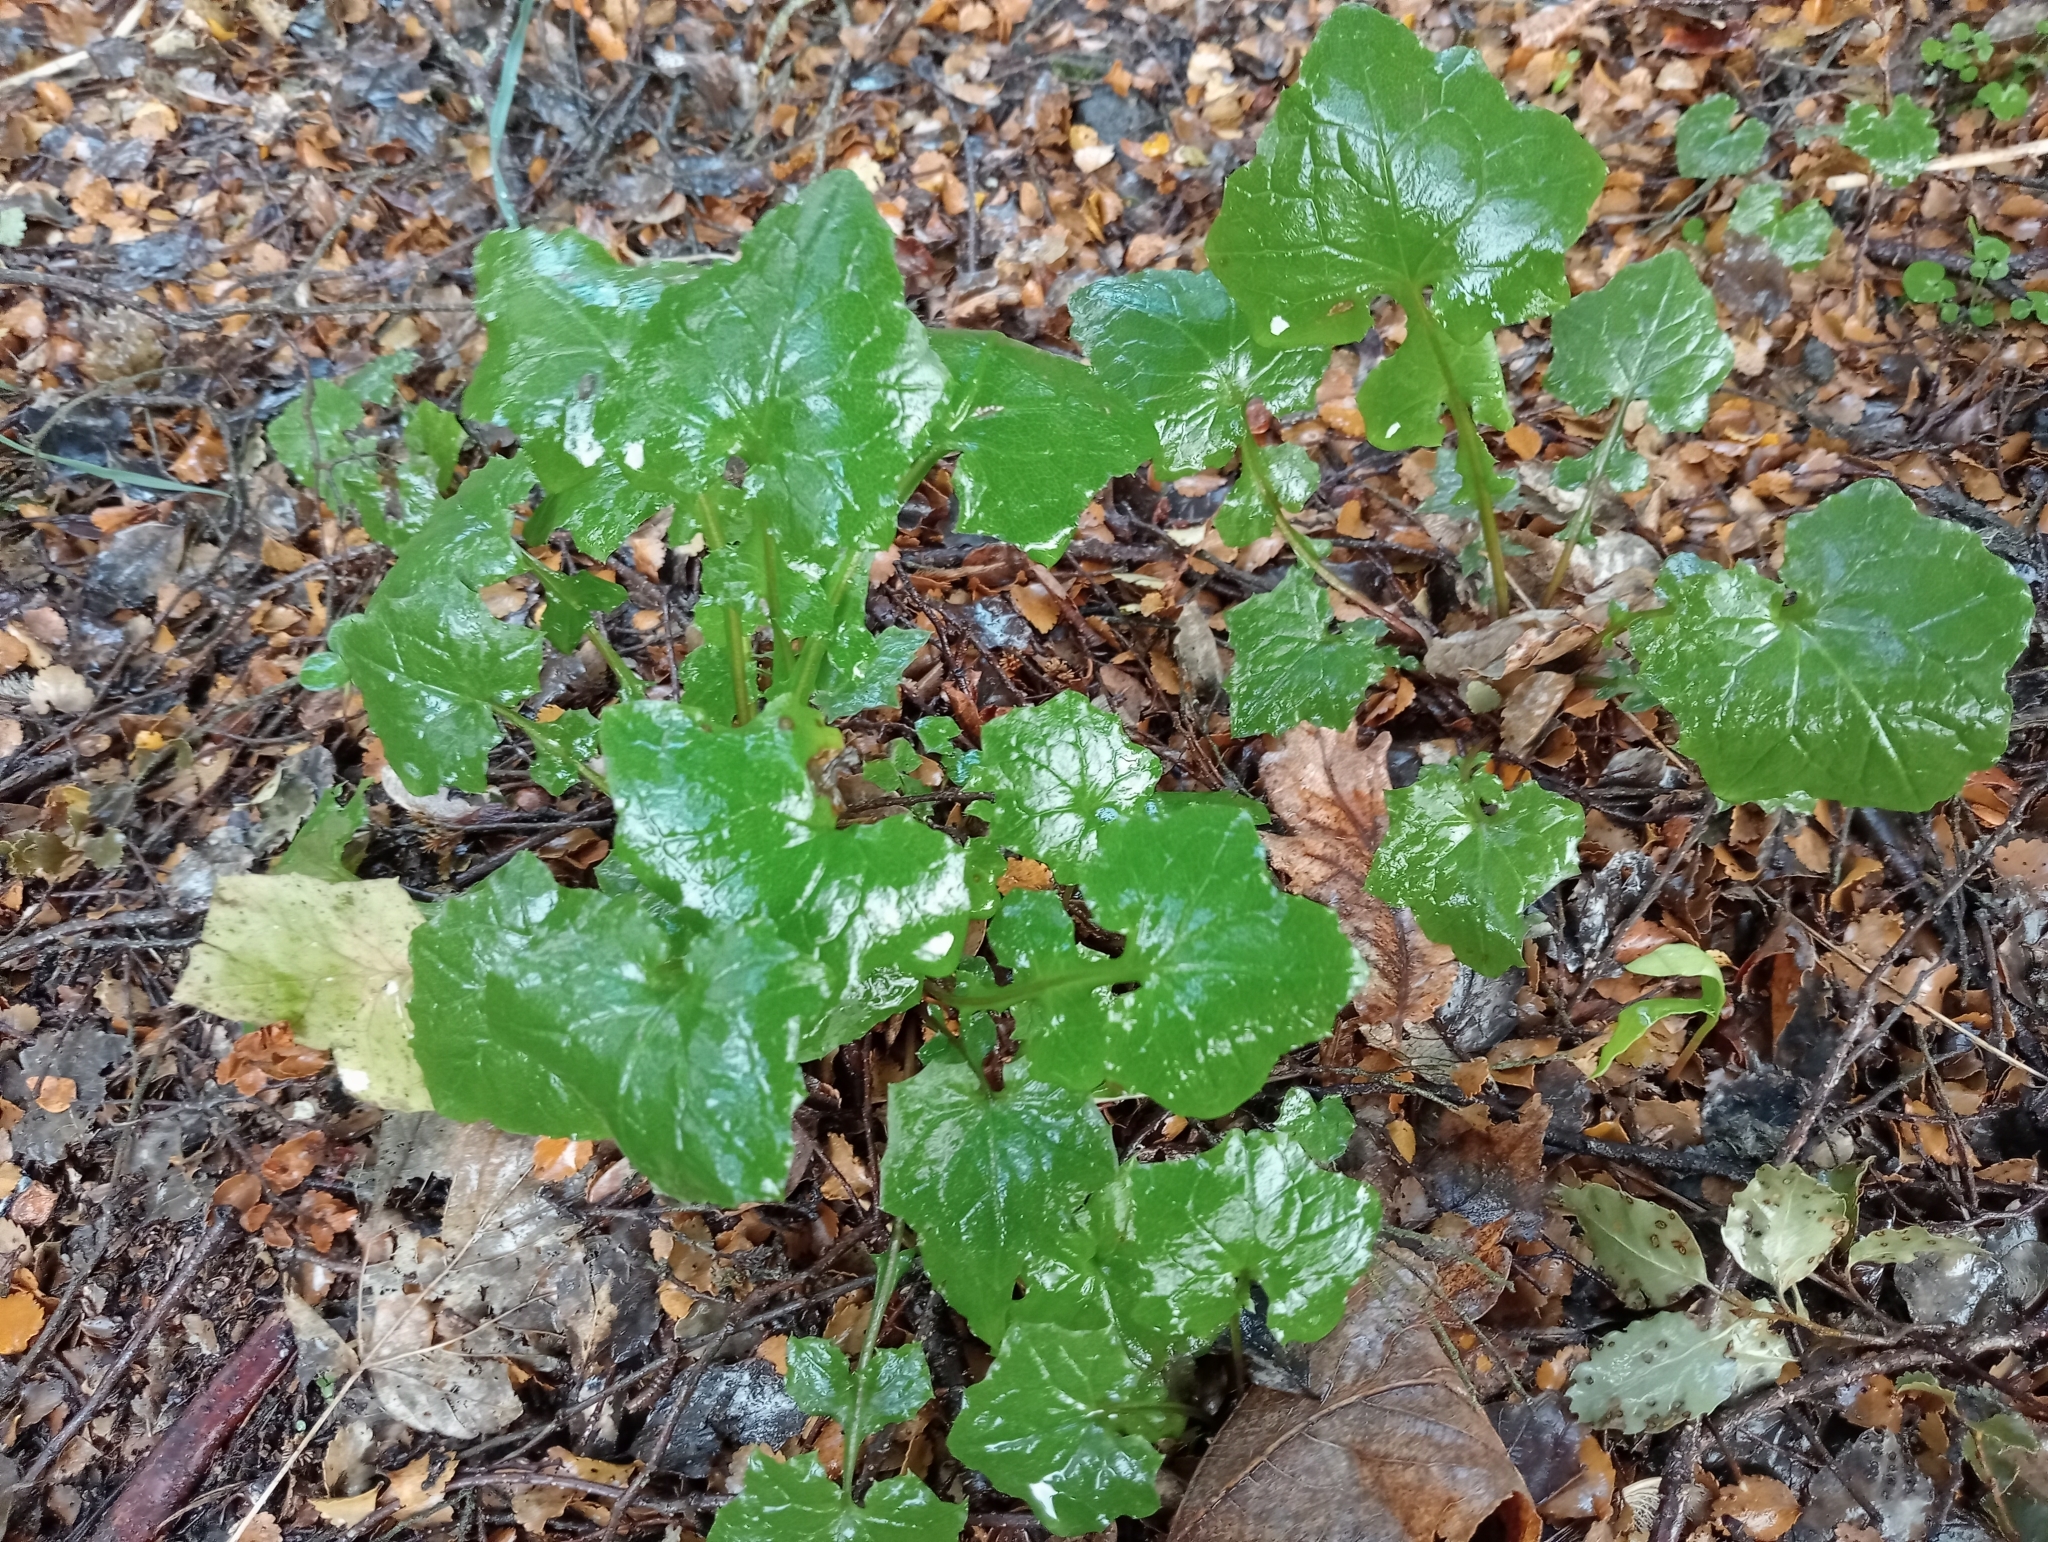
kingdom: Plantae
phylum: Tracheophyta
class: Magnoliopsida
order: Asterales
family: Asteraceae
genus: Mycelis
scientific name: Mycelis muralis
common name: Wall lettuce
